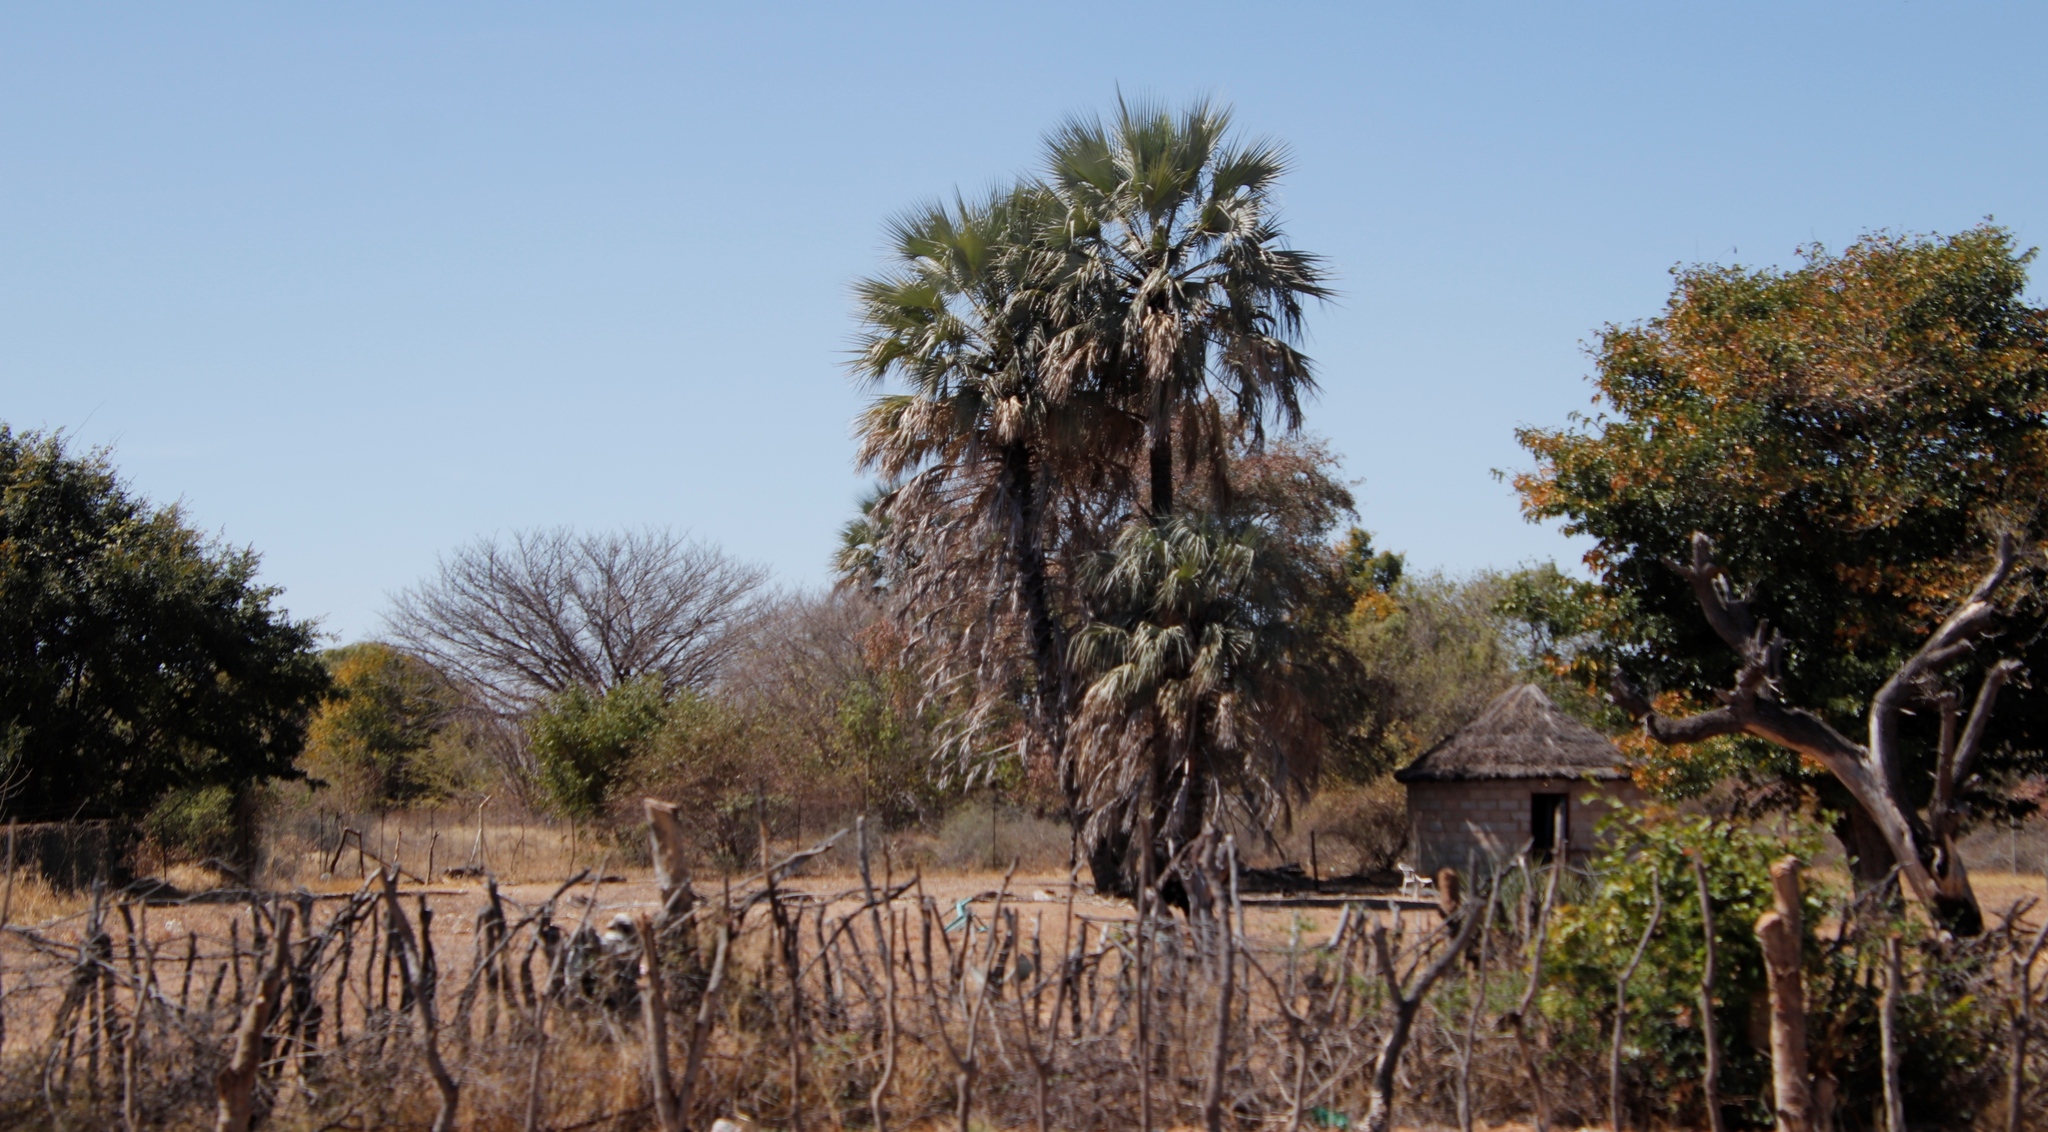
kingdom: Plantae
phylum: Tracheophyta
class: Liliopsida
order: Arecales
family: Arecaceae
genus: Hyphaene
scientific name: Hyphaene petersiana
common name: African ivory nut palm
